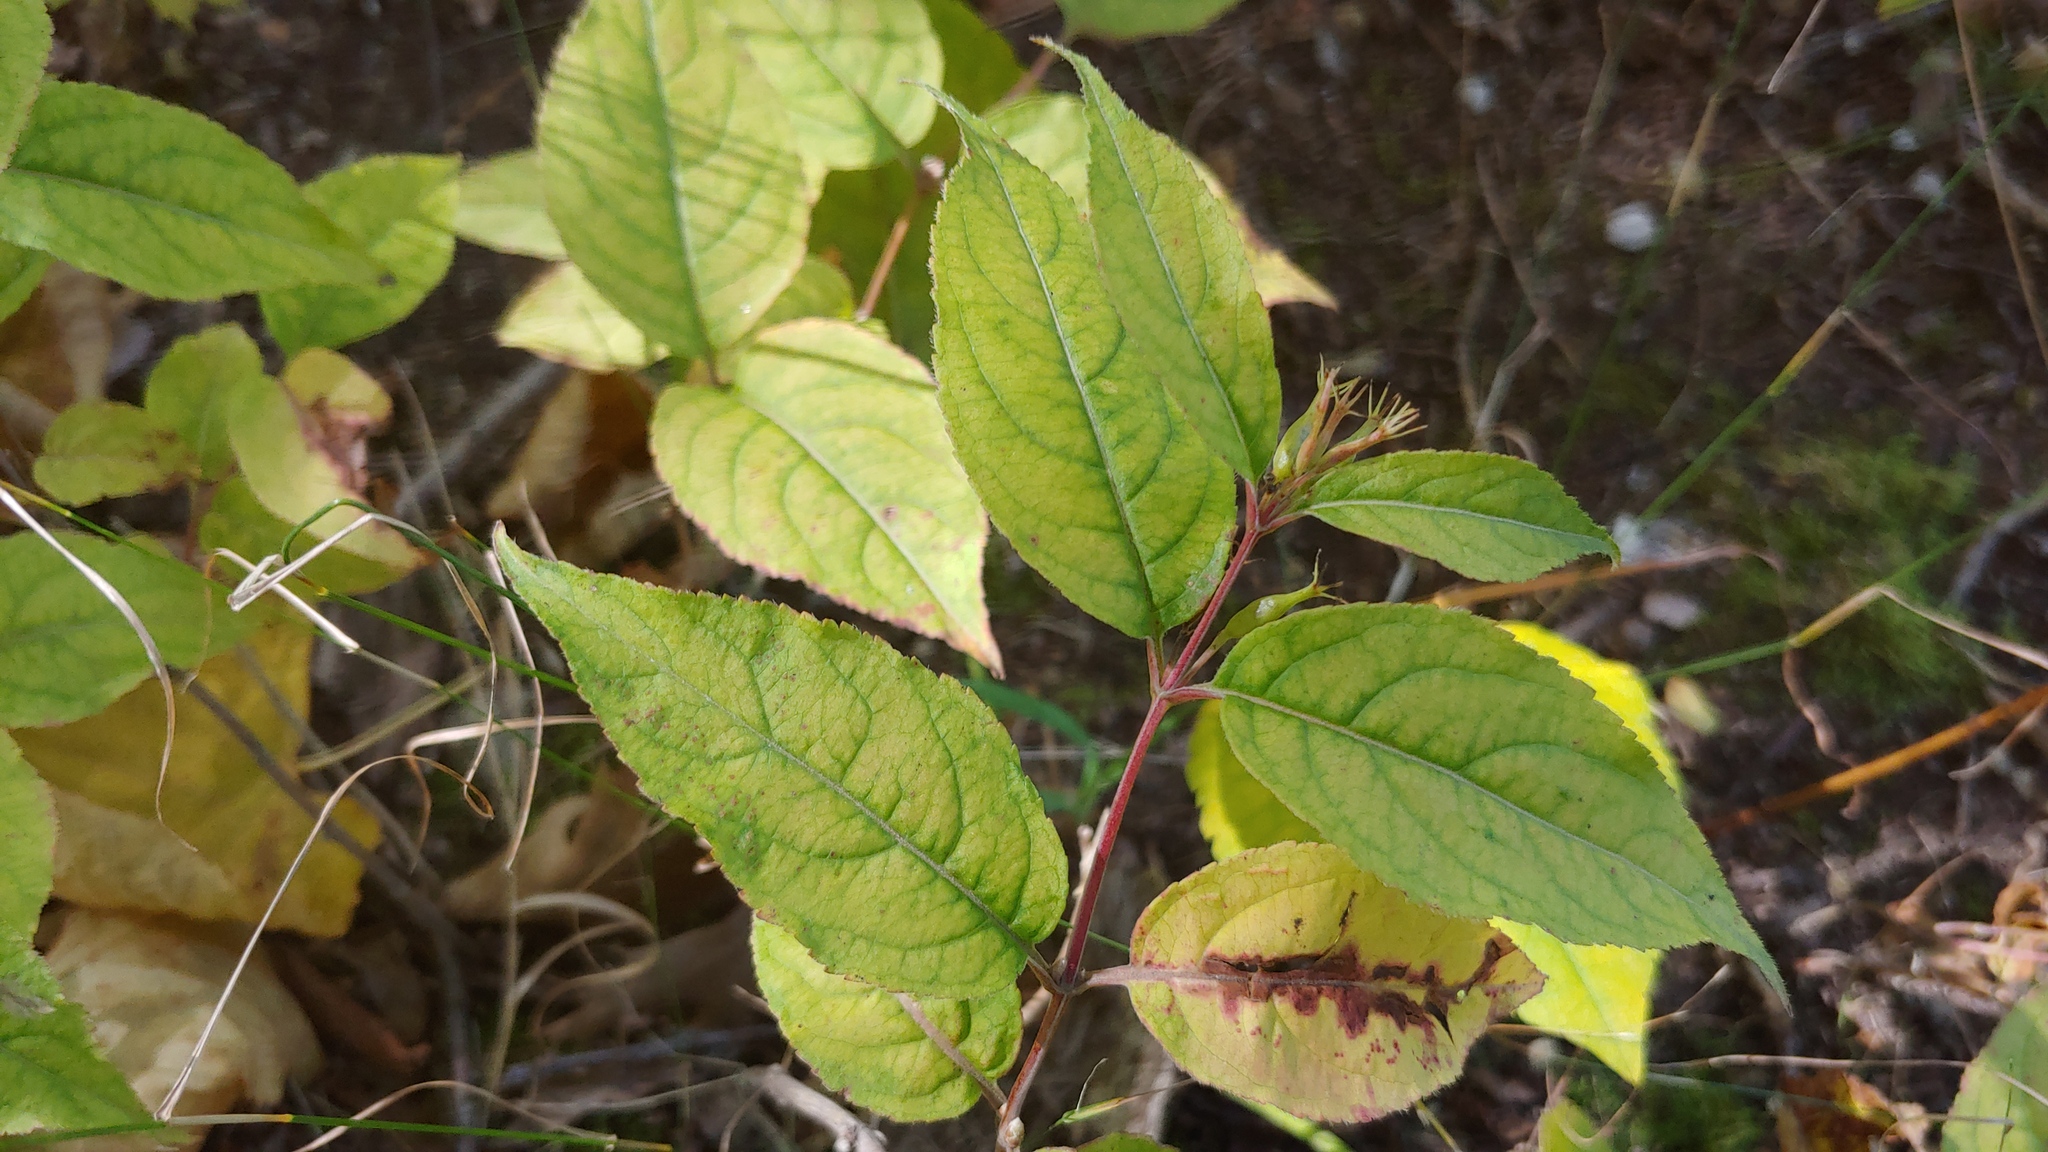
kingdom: Plantae
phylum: Tracheophyta
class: Magnoliopsida
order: Dipsacales
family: Caprifoliaceae
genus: Diervilla
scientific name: Diervilla lonicera
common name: Bush-honeysuckle
